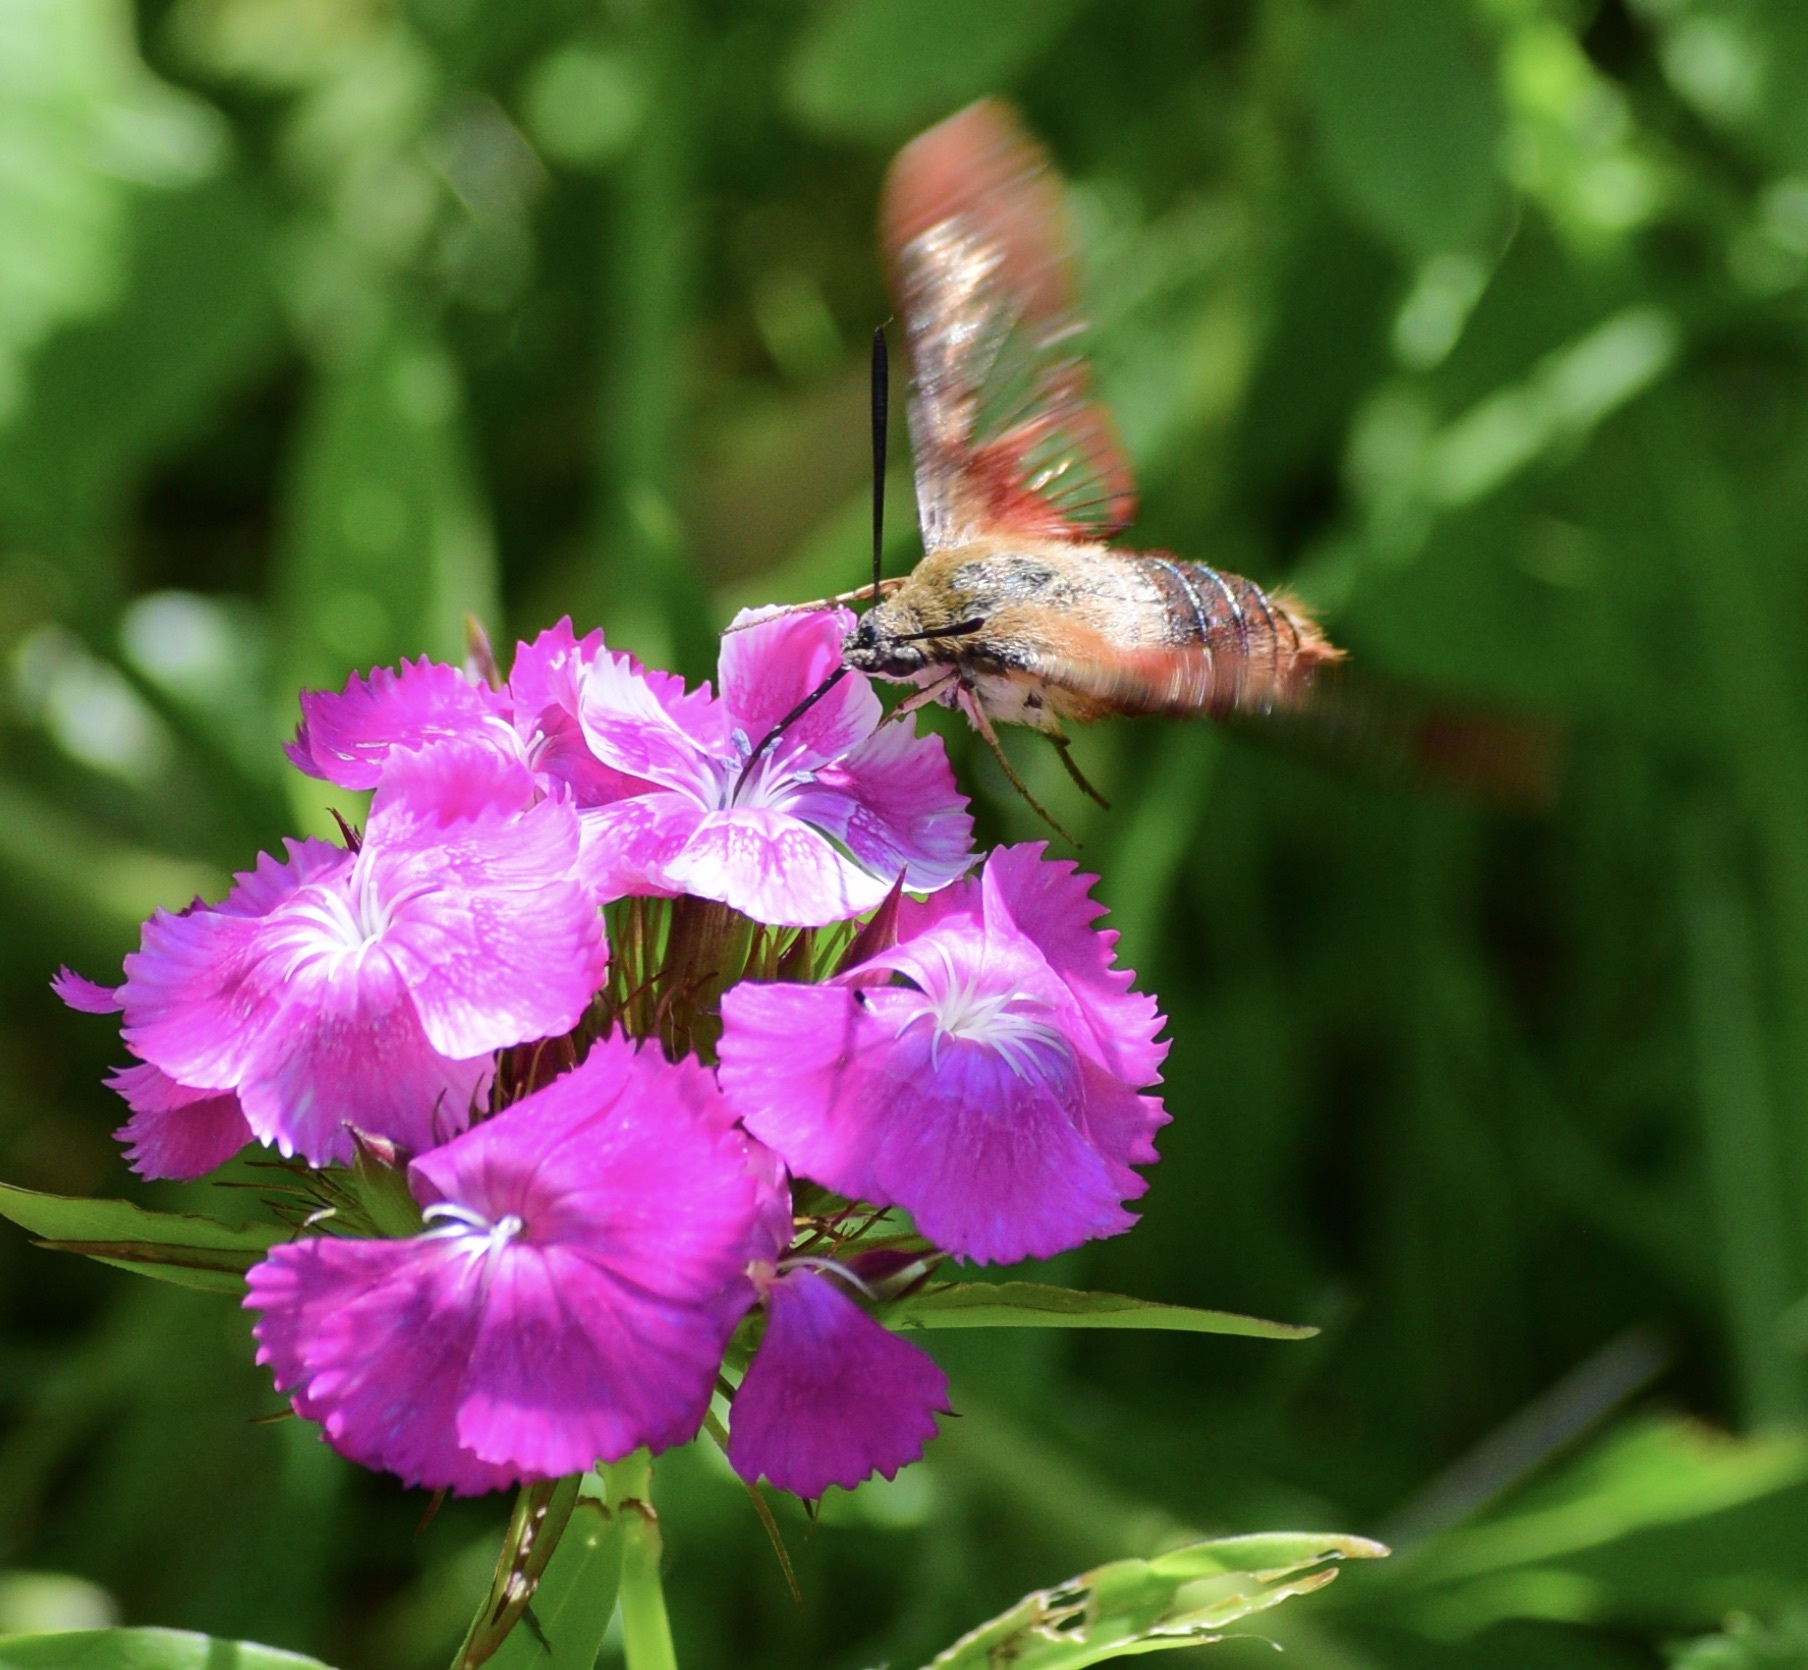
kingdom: Animalia
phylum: Arthropoda
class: Insecta
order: Lepidoptera
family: Sphingidae
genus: Hemaris
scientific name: Hemaris thysbe
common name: Common clear-wing
